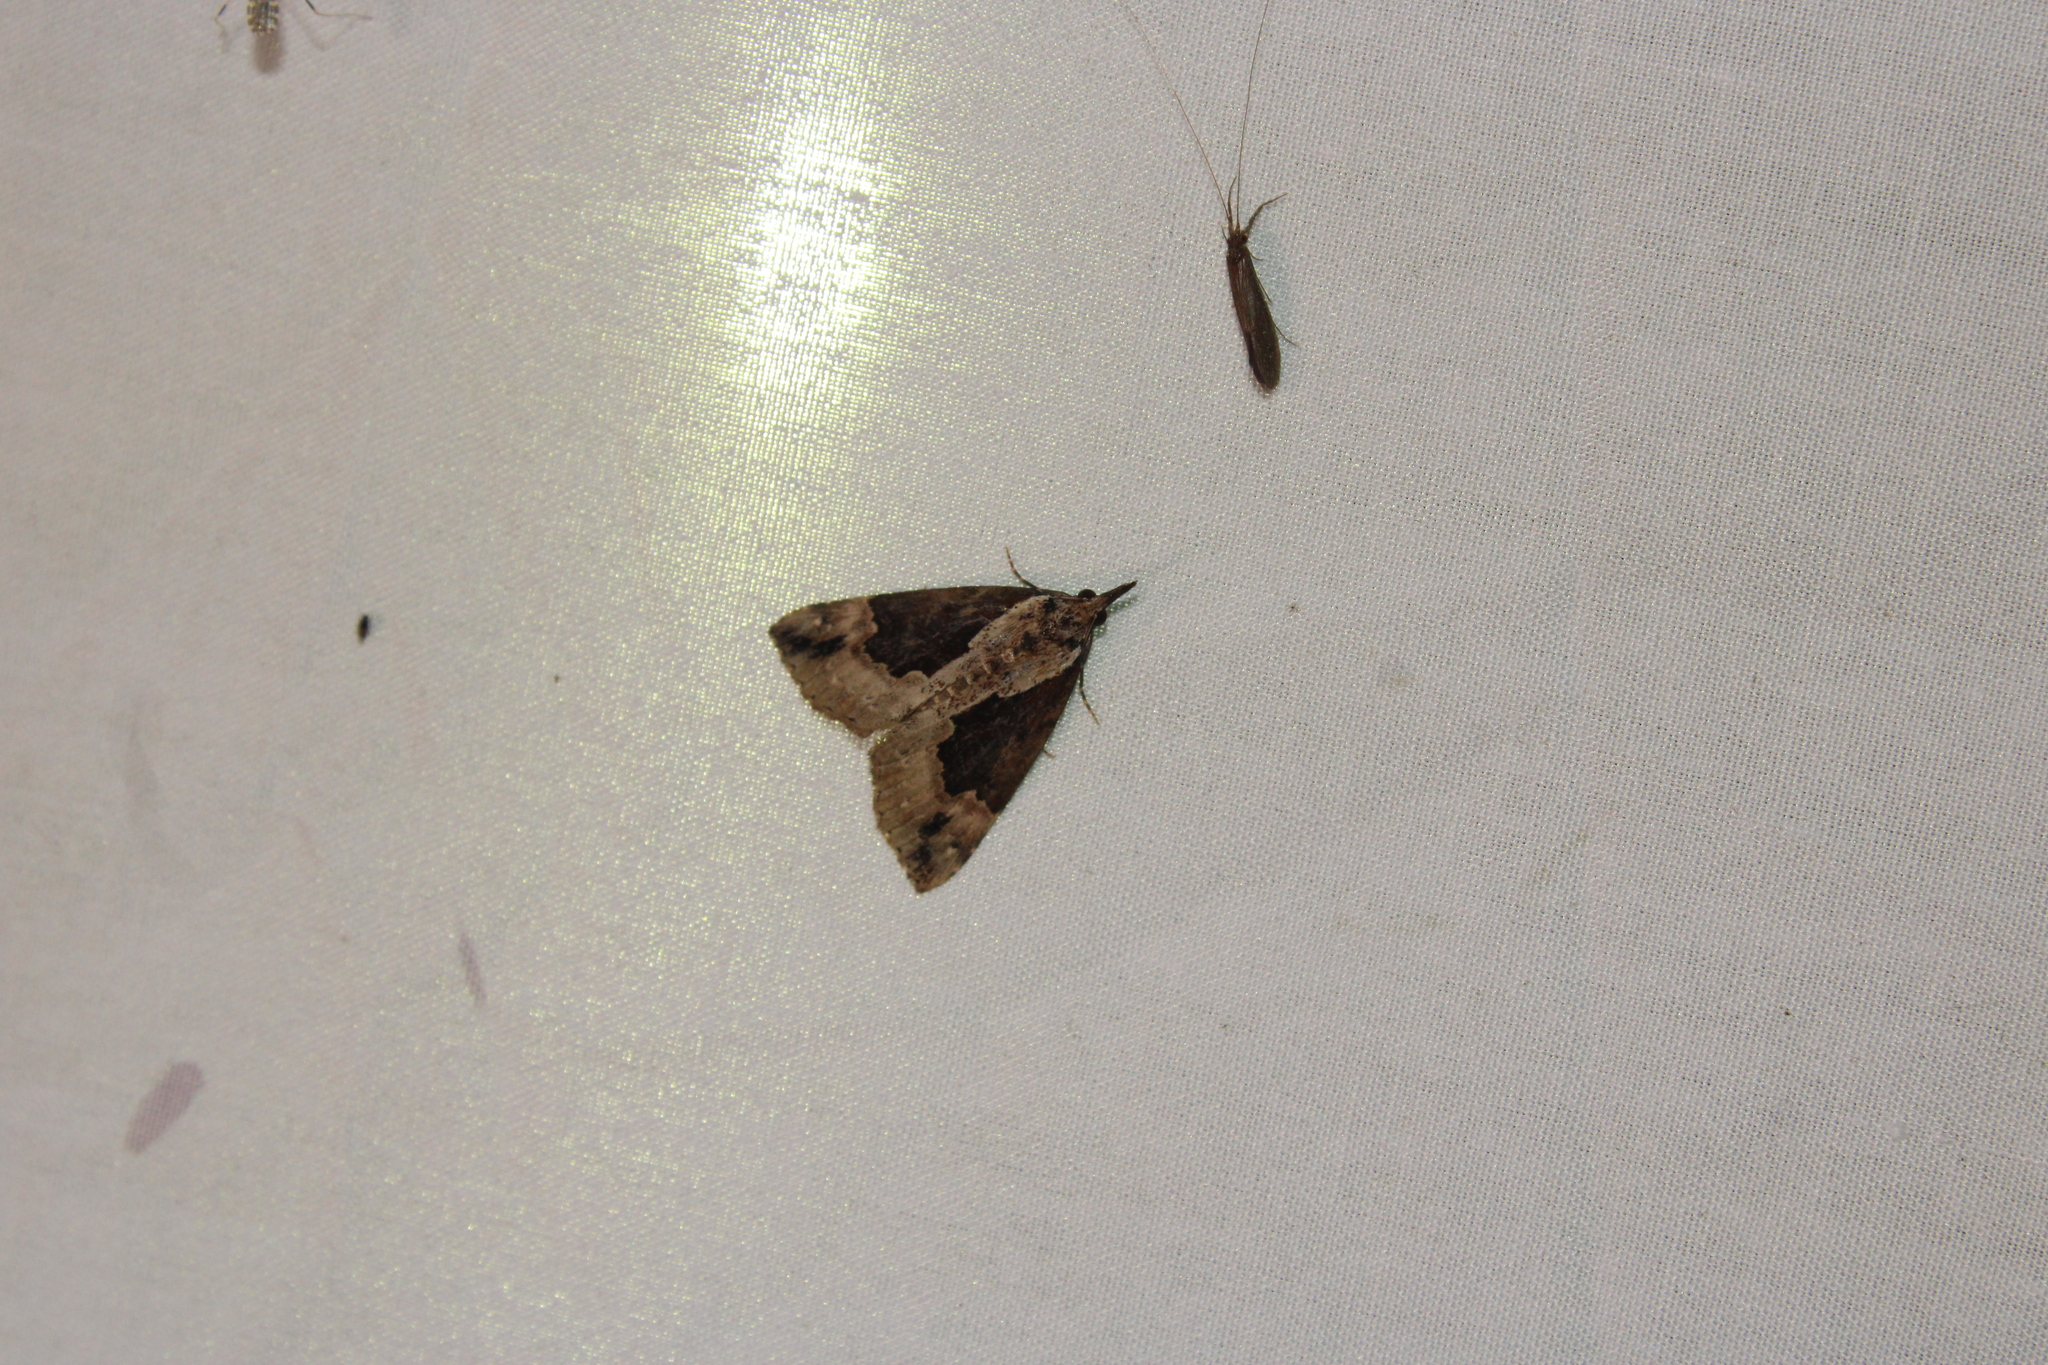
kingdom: Animalia
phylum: Arthropoda
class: Insecta
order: Lepidoptera
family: Erebidae
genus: Hypena
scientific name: Hypena baltimoralis
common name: Baltimore snout
